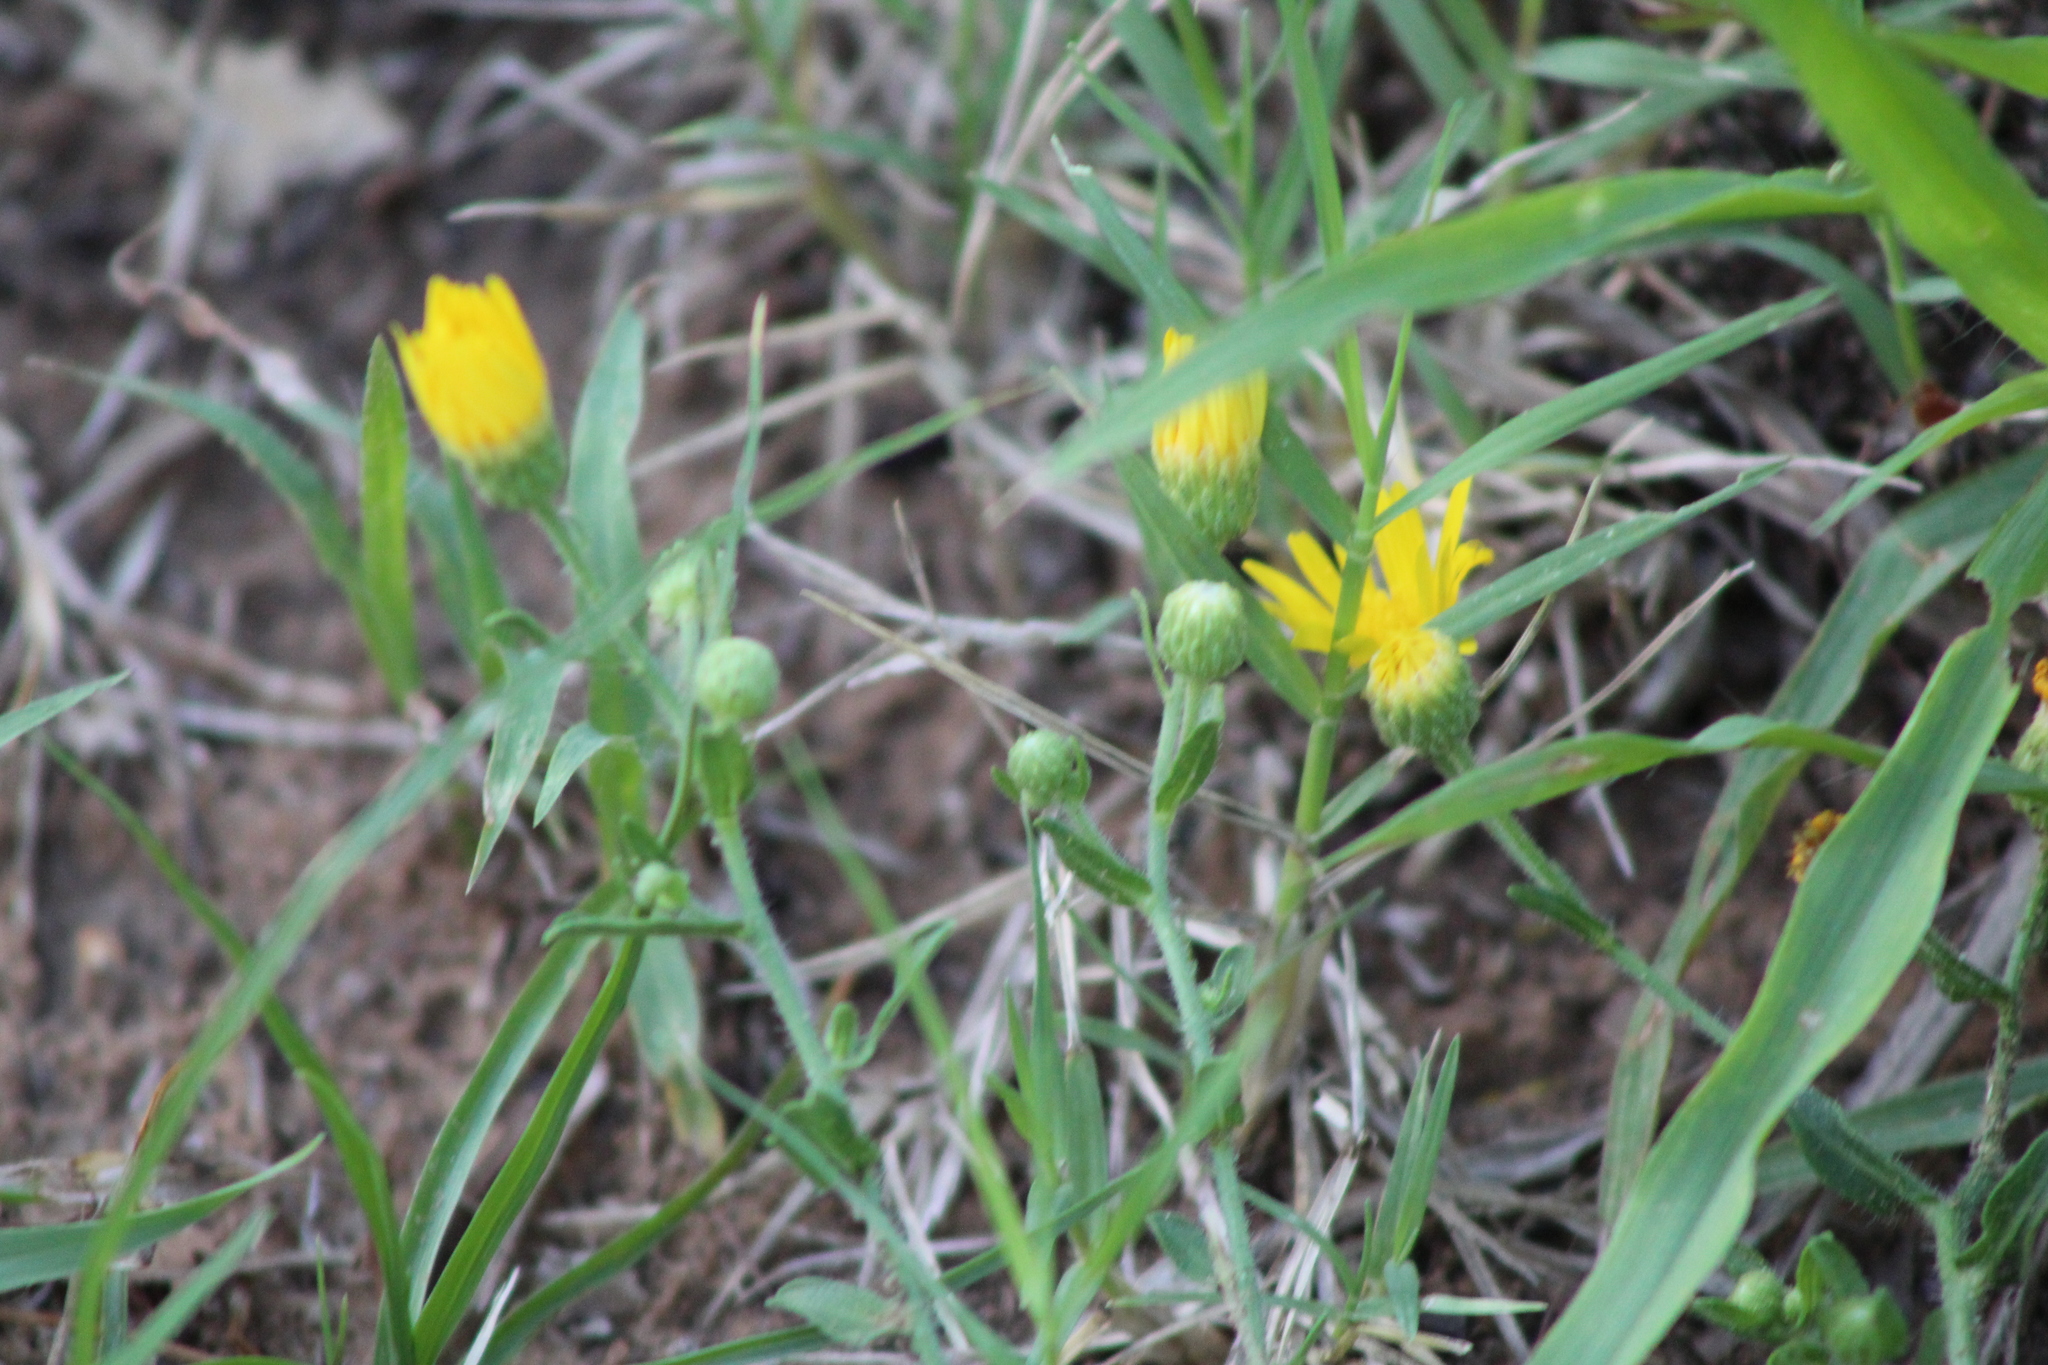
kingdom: Plantae
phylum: Tracheophyta
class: Magnoliopsida
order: Asterales
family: Asteraceae
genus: Heterotheca
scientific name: Heterotheca subaxillaris
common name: Camphorweed
